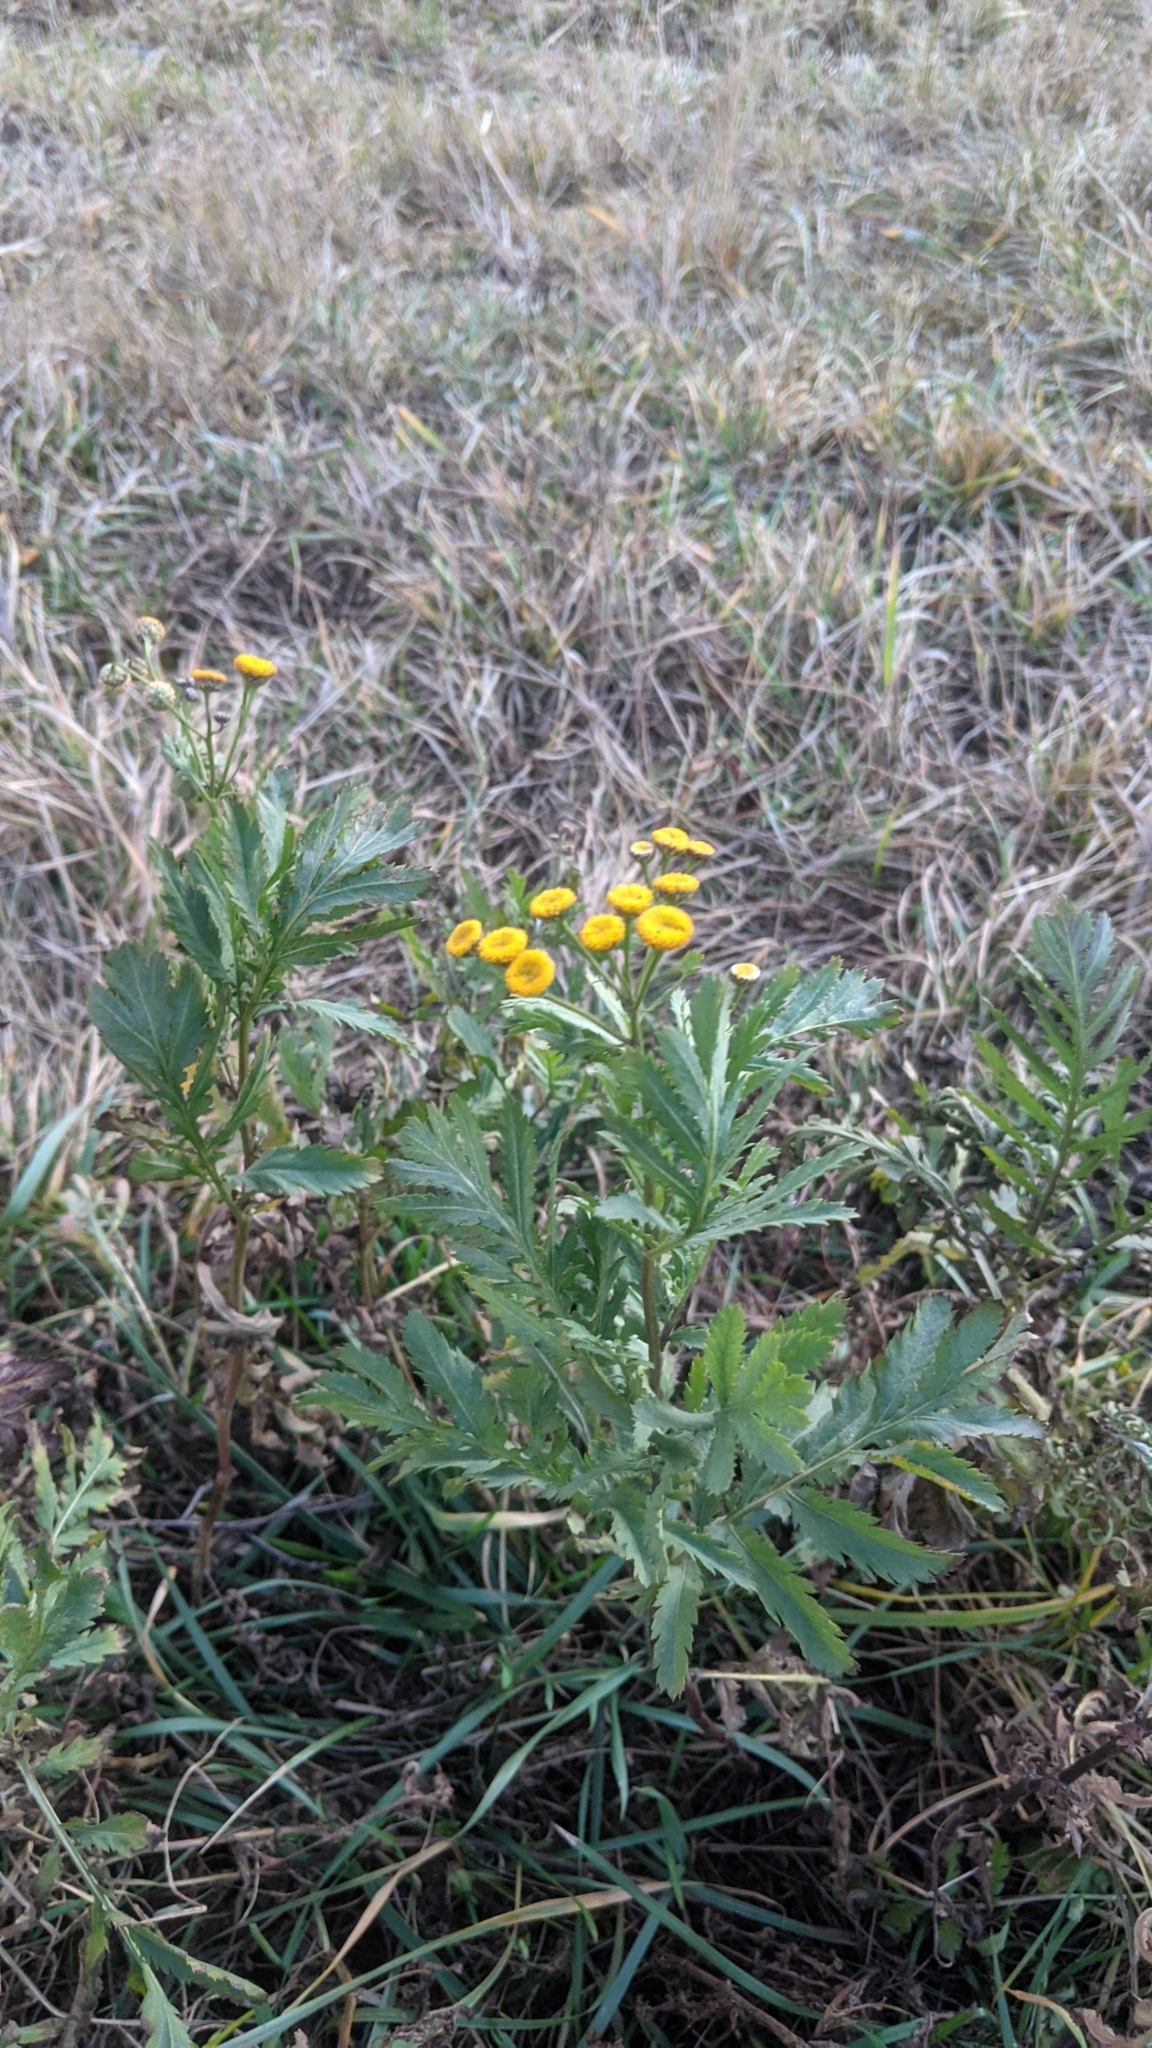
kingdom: Plantae
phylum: Tracheophyta
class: Magnoliopsida
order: Asterales
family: Asteraceae
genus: Tanacetum
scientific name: Tanacetum vulgare
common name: Common tansy
